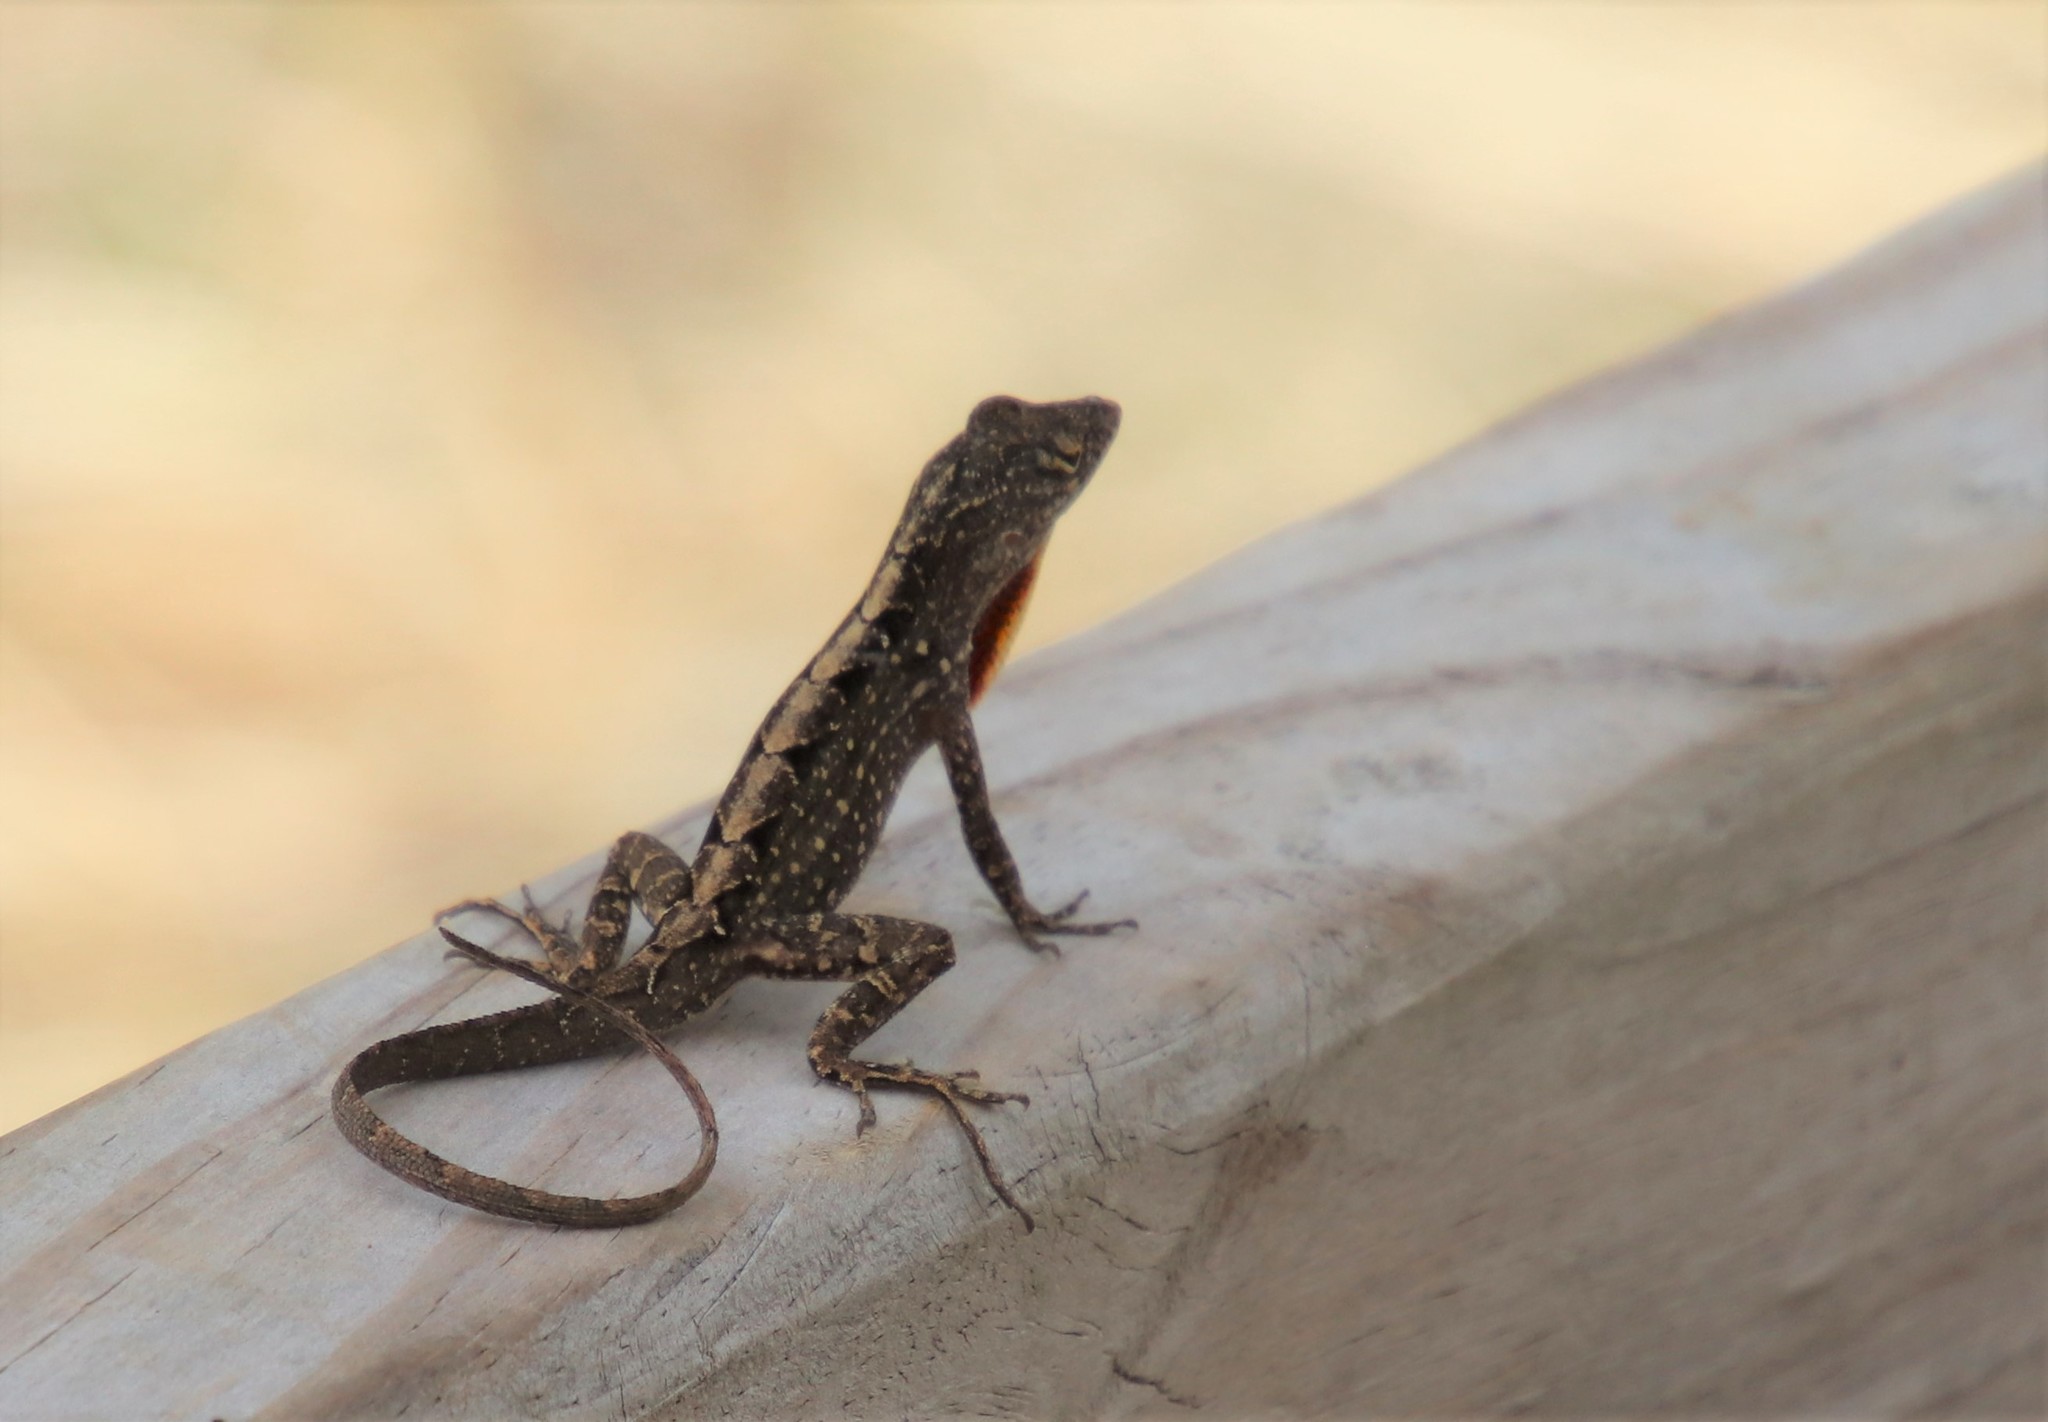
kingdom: Animalia
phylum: Chordata
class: Squamata
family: Dactyloidae
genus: Anolis
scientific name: Anolis sagrei
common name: Brown anole
